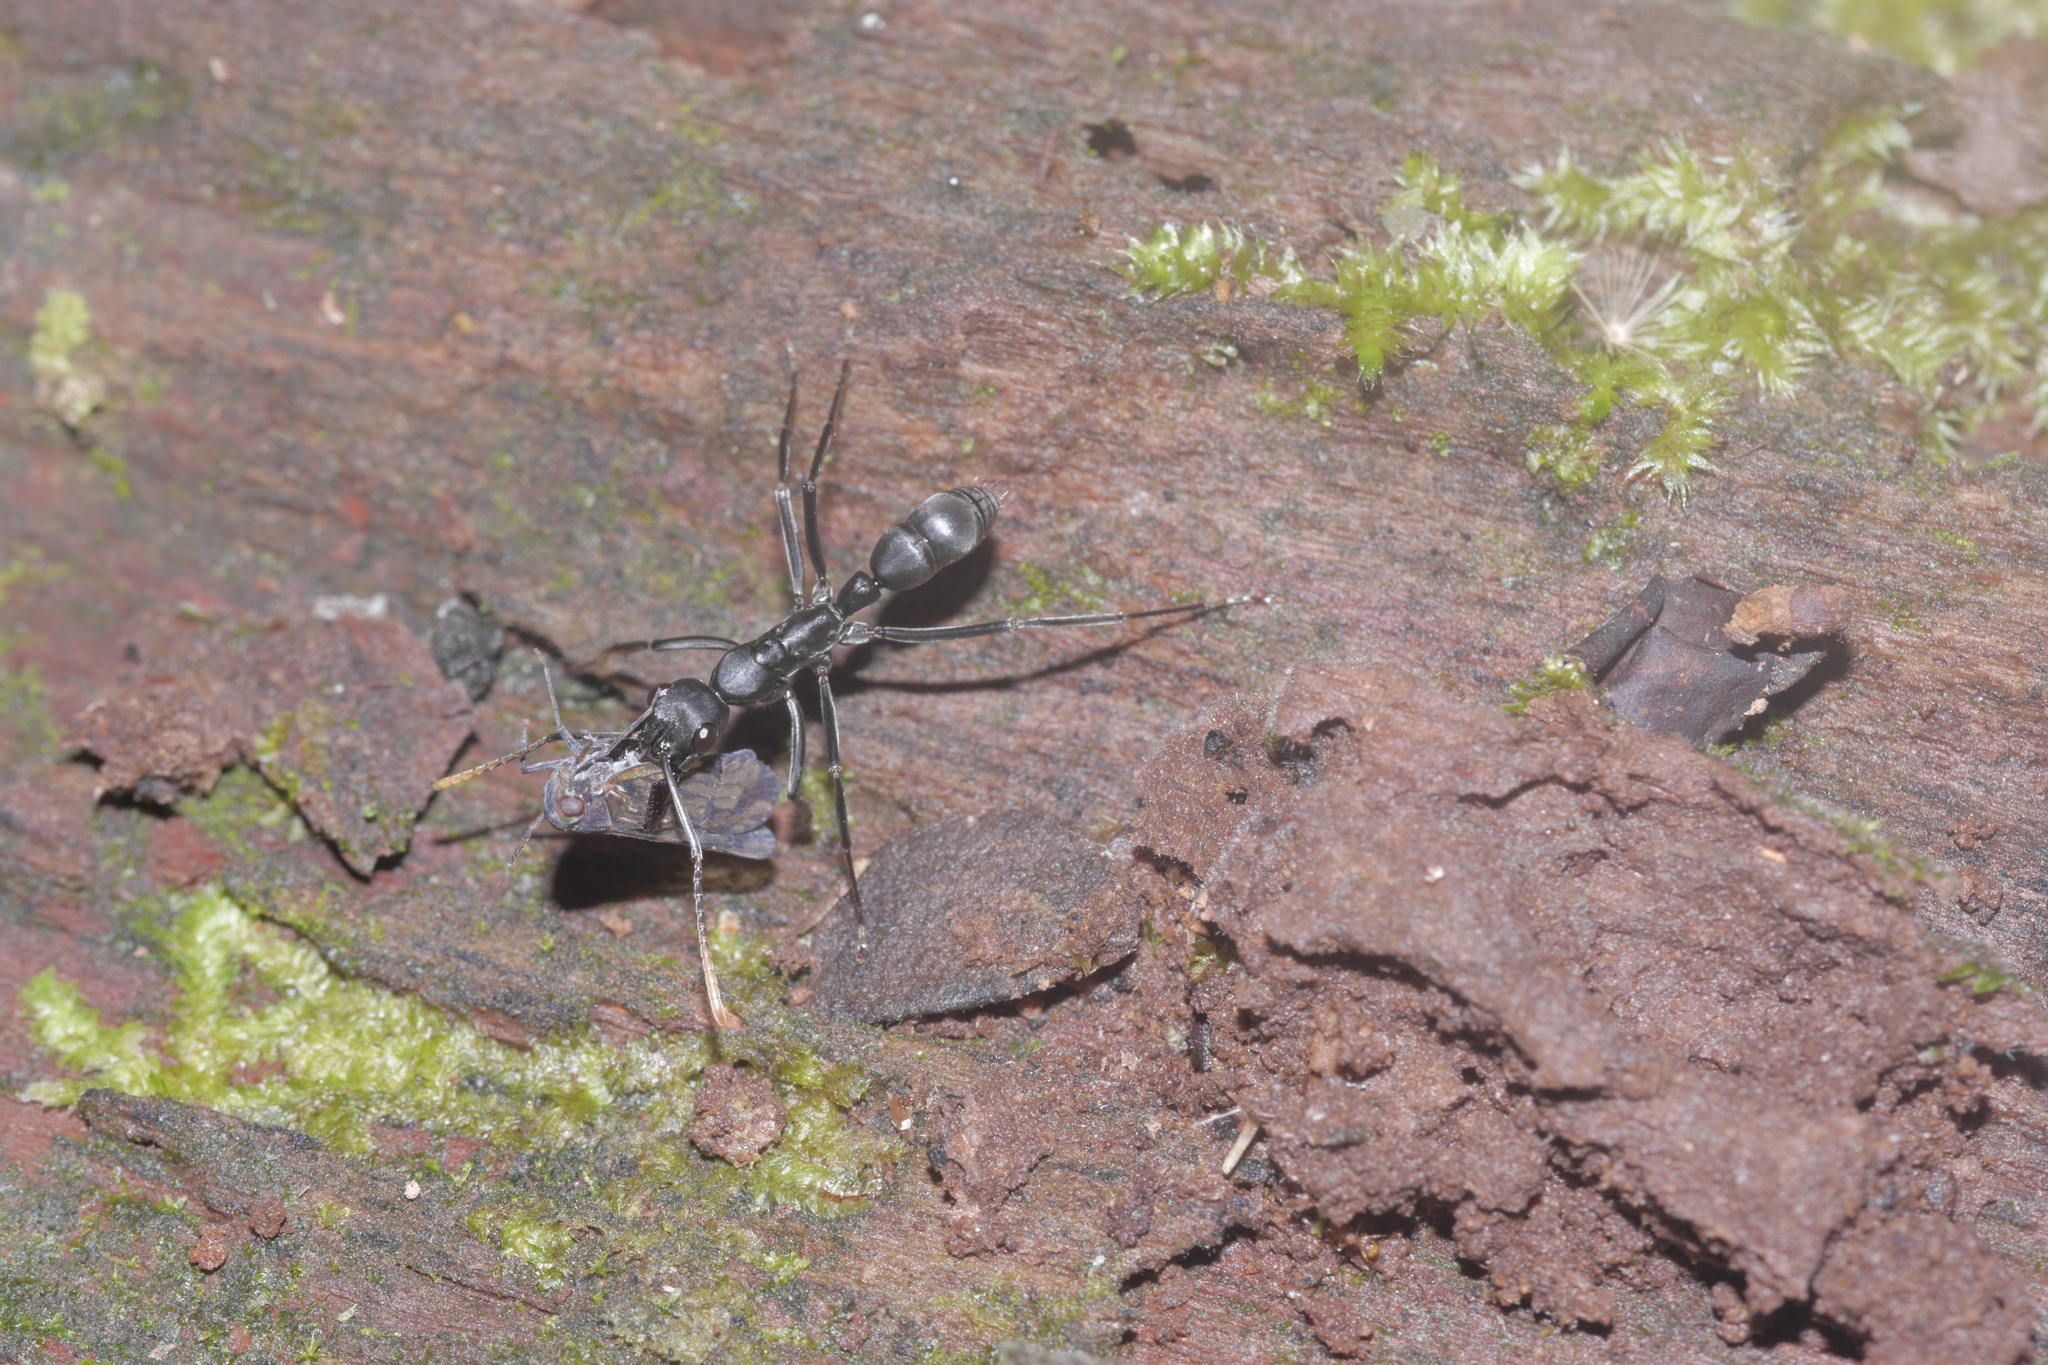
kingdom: Animalia
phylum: Arthropoda
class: Insecta
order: Hymenoptera
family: Formicidae
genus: Pachycondyla
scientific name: Pachycondyla apicalis
